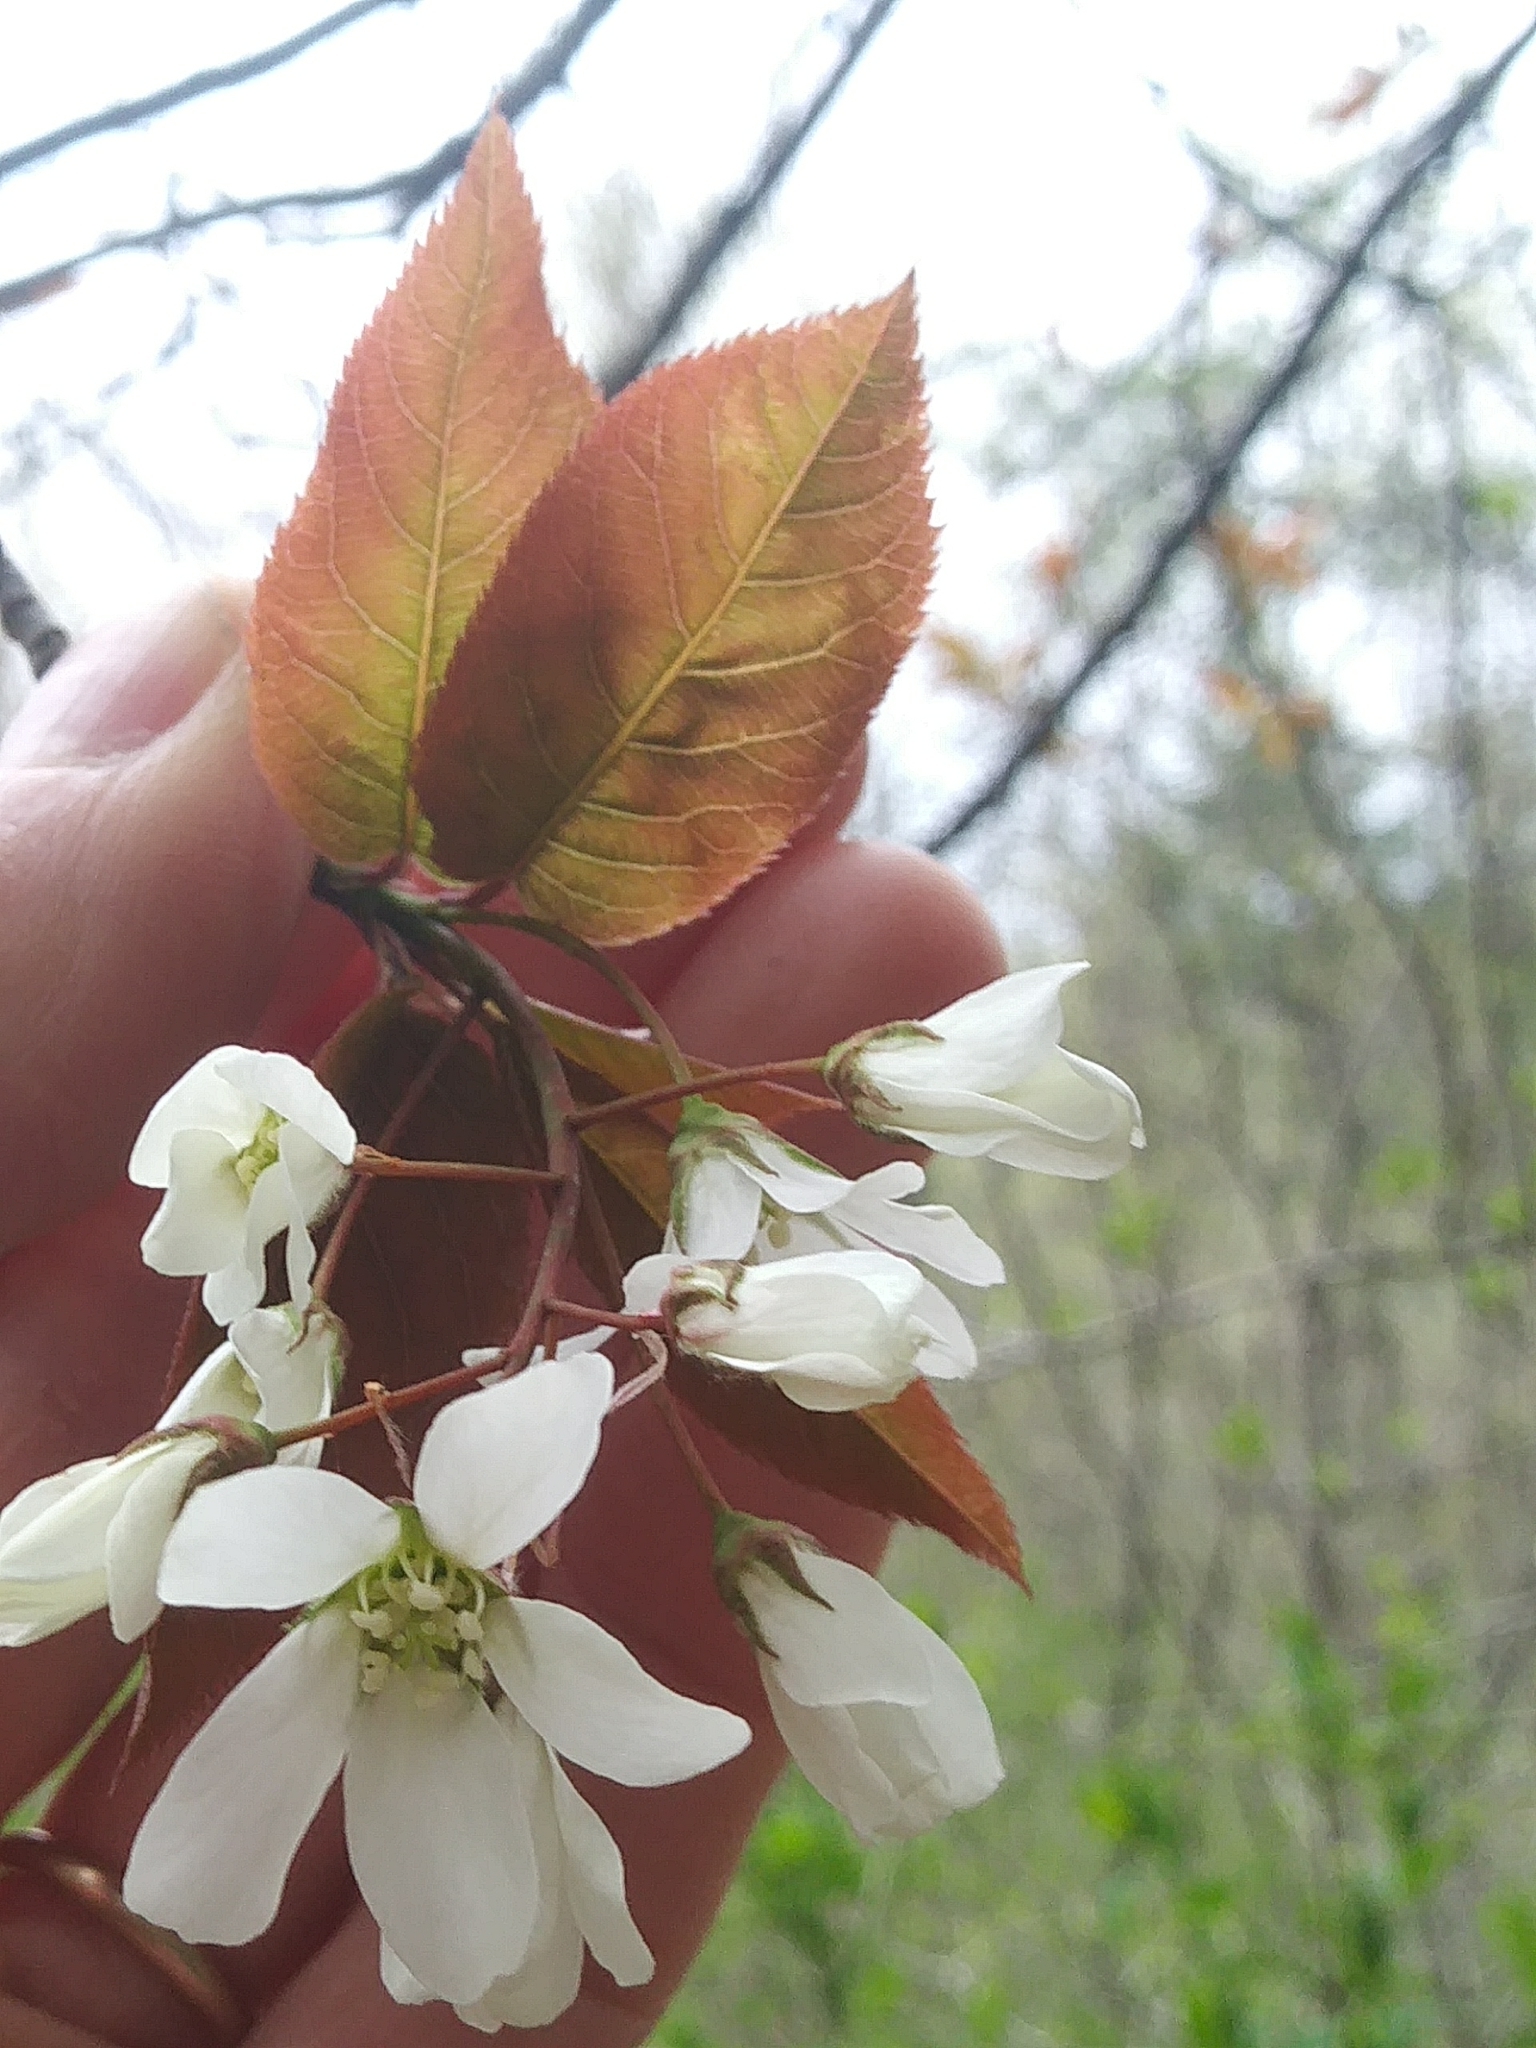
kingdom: Plantae
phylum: Tracheophyta
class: Magnoliopsida
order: Rosales
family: Rosaceae
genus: Amelanchier
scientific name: Amelanchier laevis
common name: Allegheny serviceberry
